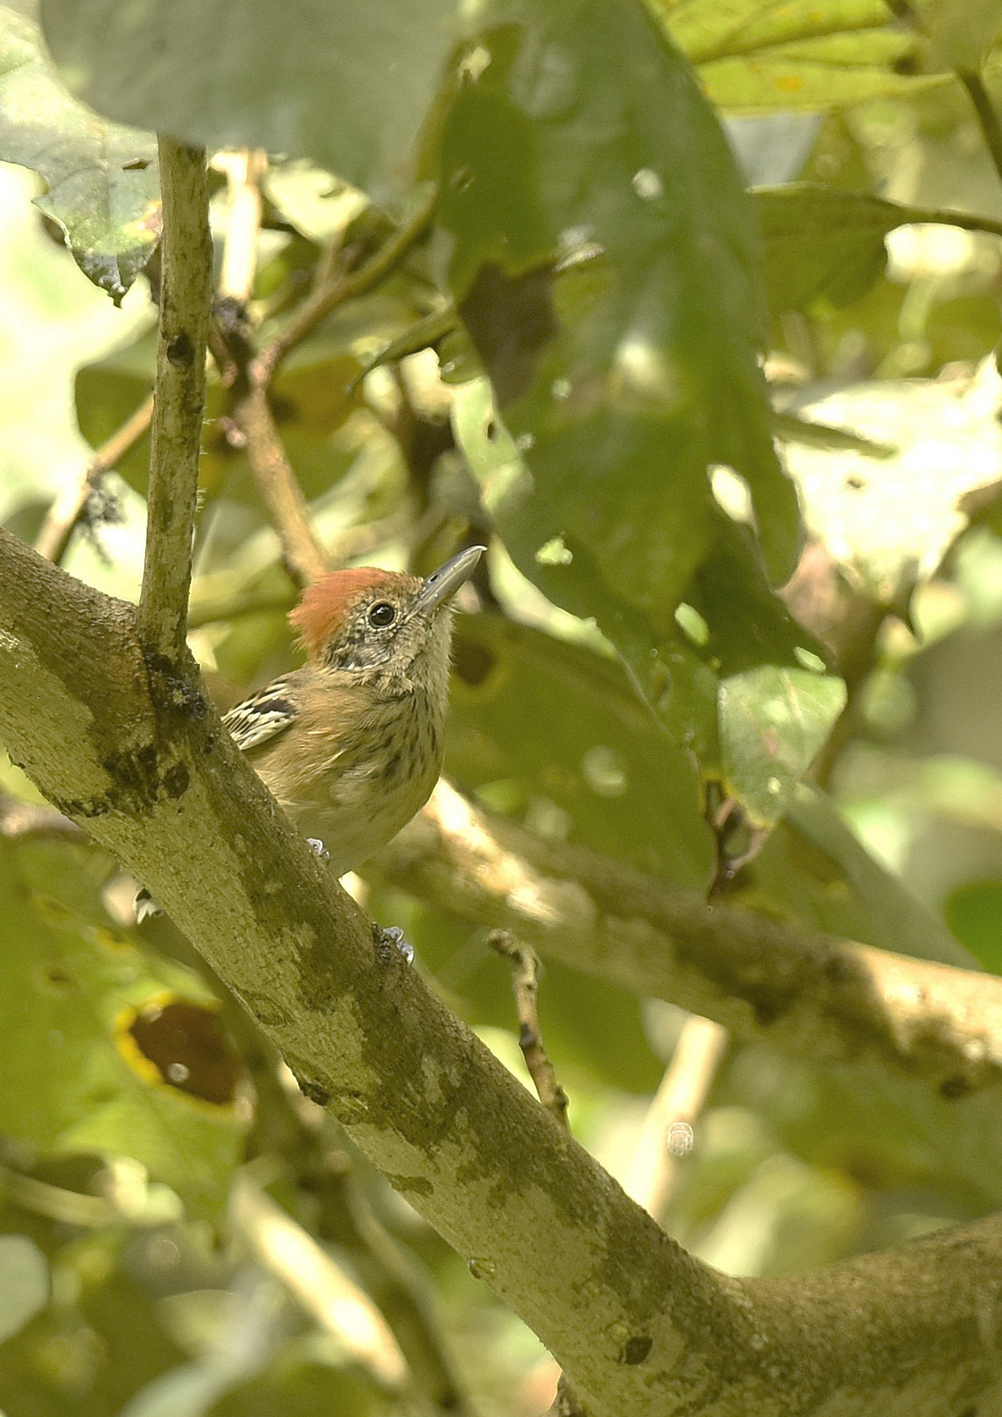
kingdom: Animalia
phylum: Chordata
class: Aves
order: Passeriformes
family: Thamnophilidae
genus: Sakesphorus
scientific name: Sakesphorus canadensis
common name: Black-crested antshrike
